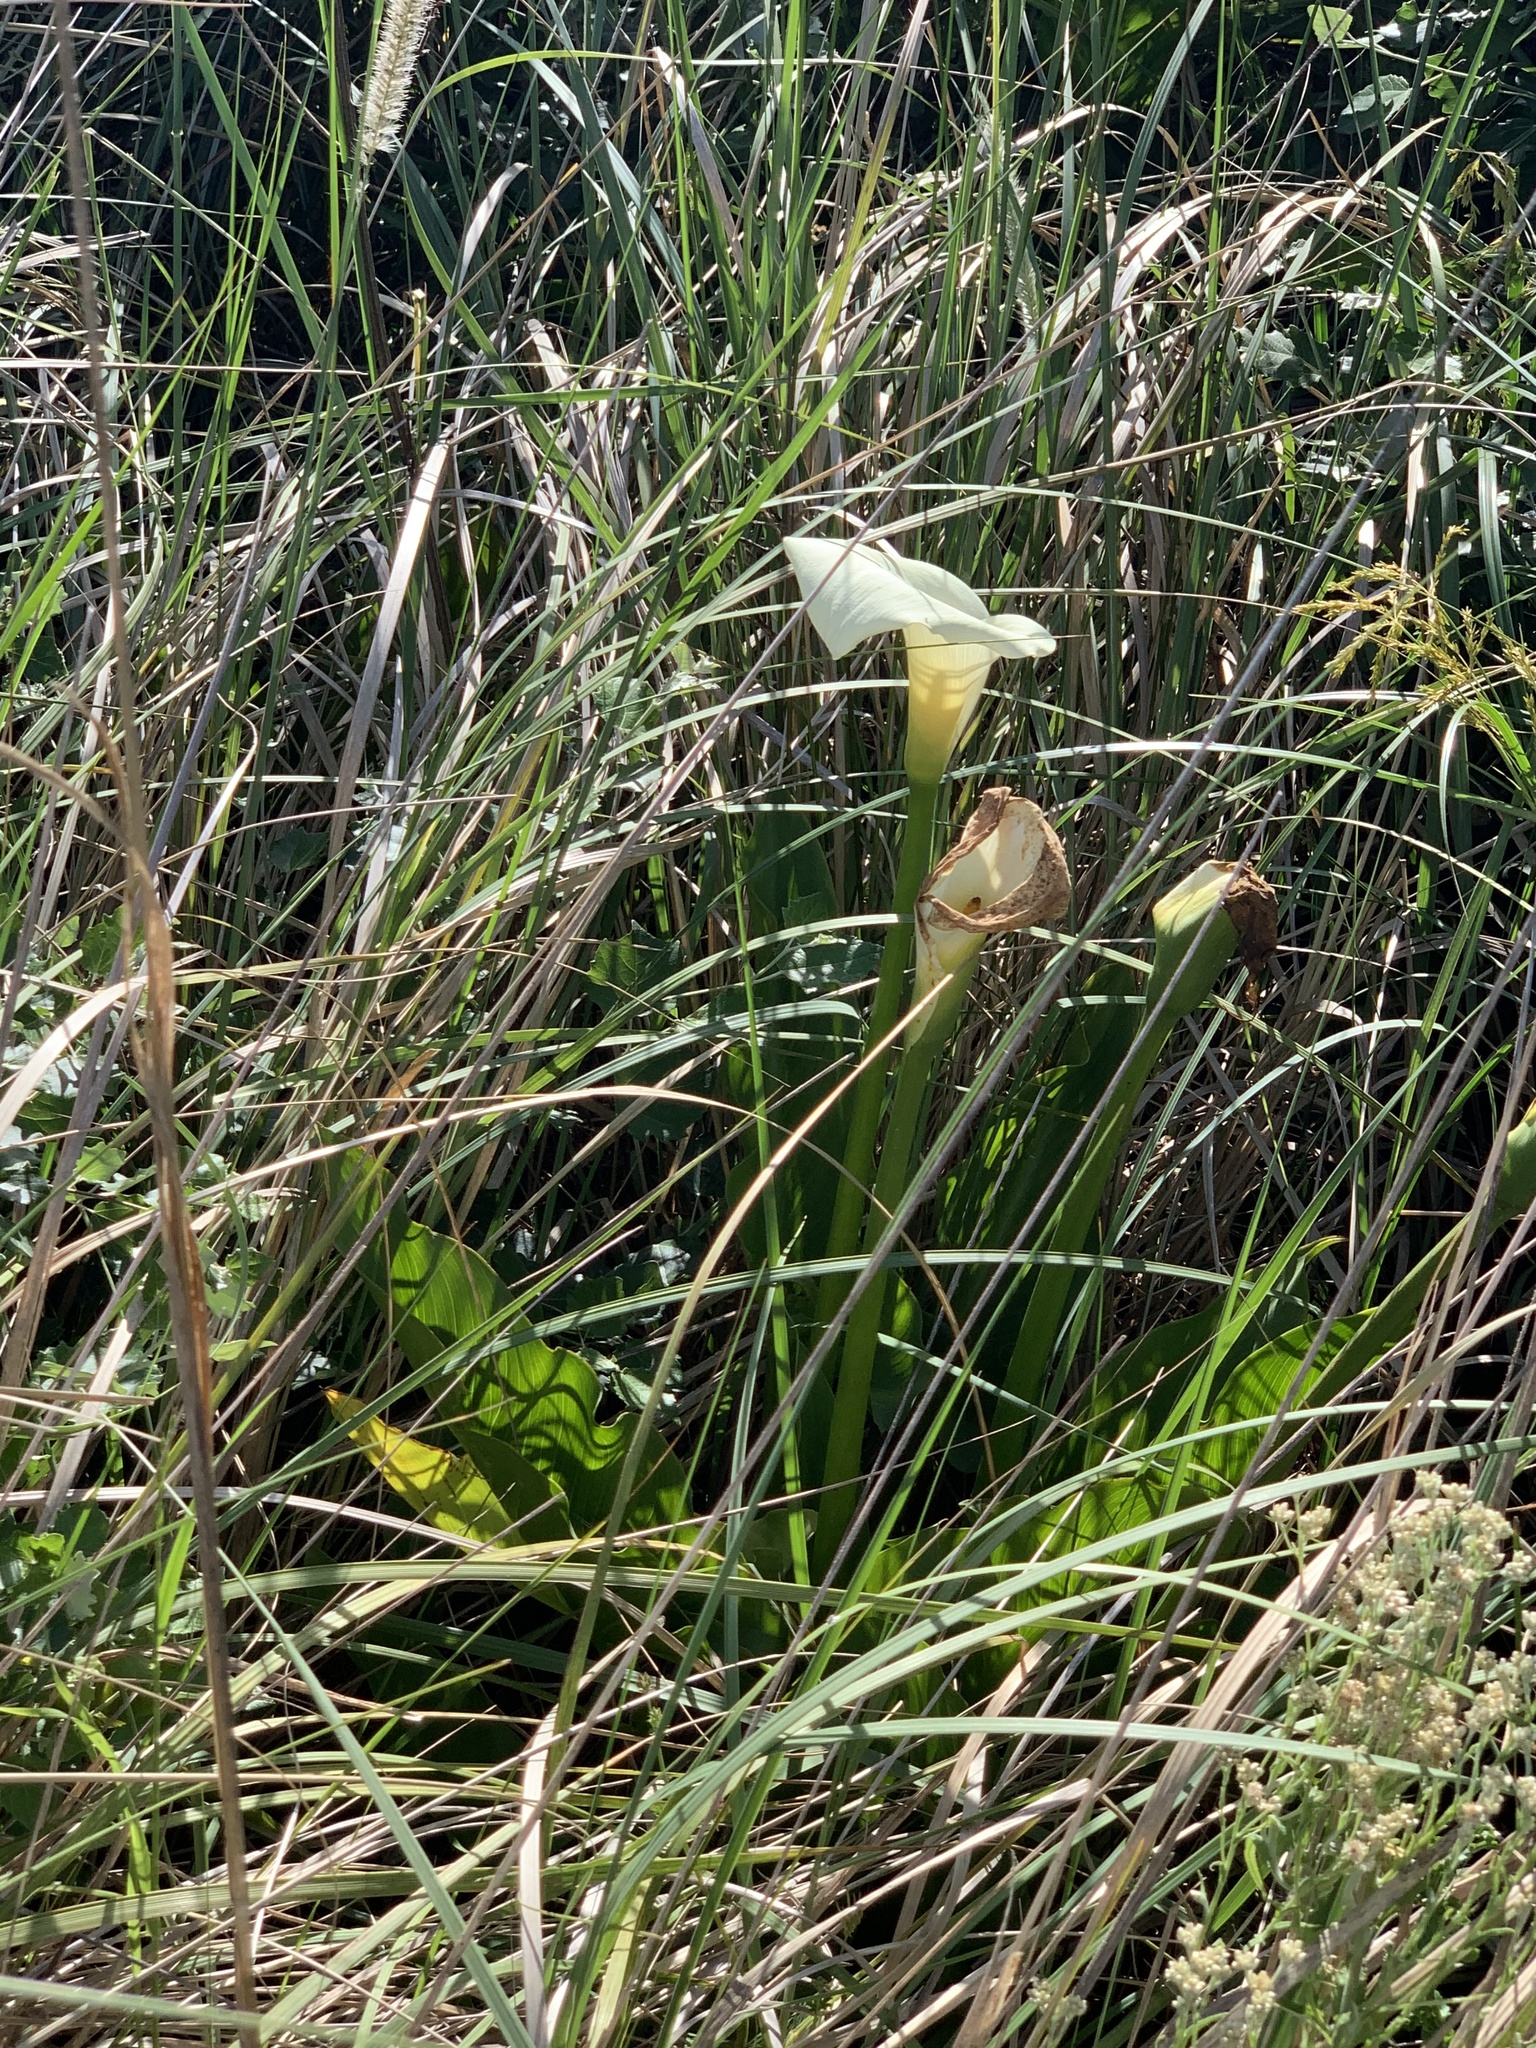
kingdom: Plantae
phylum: Tracheophyta
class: Liliopsida
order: Alismatales
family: Araceae
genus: Zantedeschia
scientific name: Zantedeschia aethiopica
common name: Altar-lily
